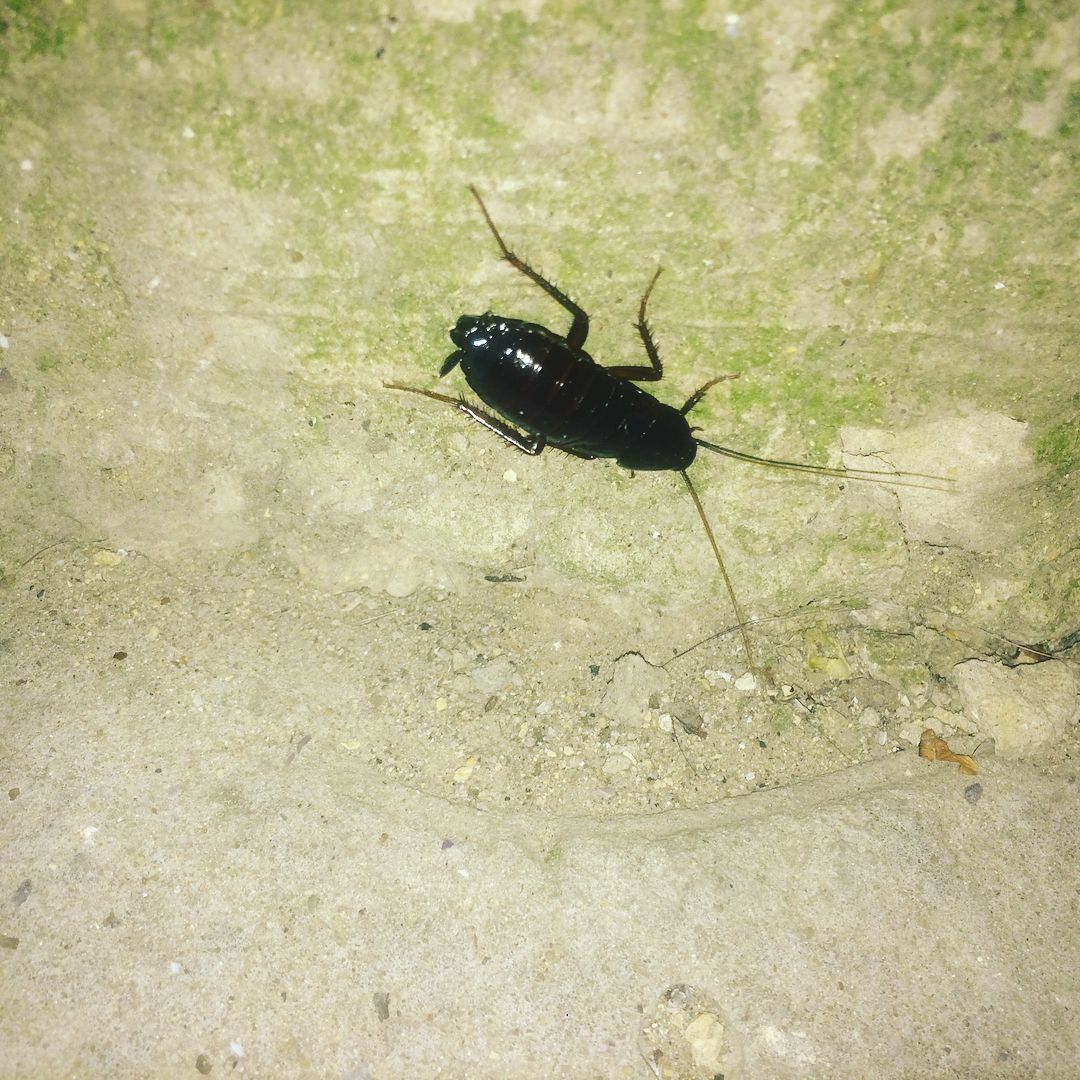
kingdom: Animalia
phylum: Arthropoda
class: Insecta
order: Blattodea
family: Blattidae
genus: Blatta
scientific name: Blatta orientalis
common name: Oriental cockroach
